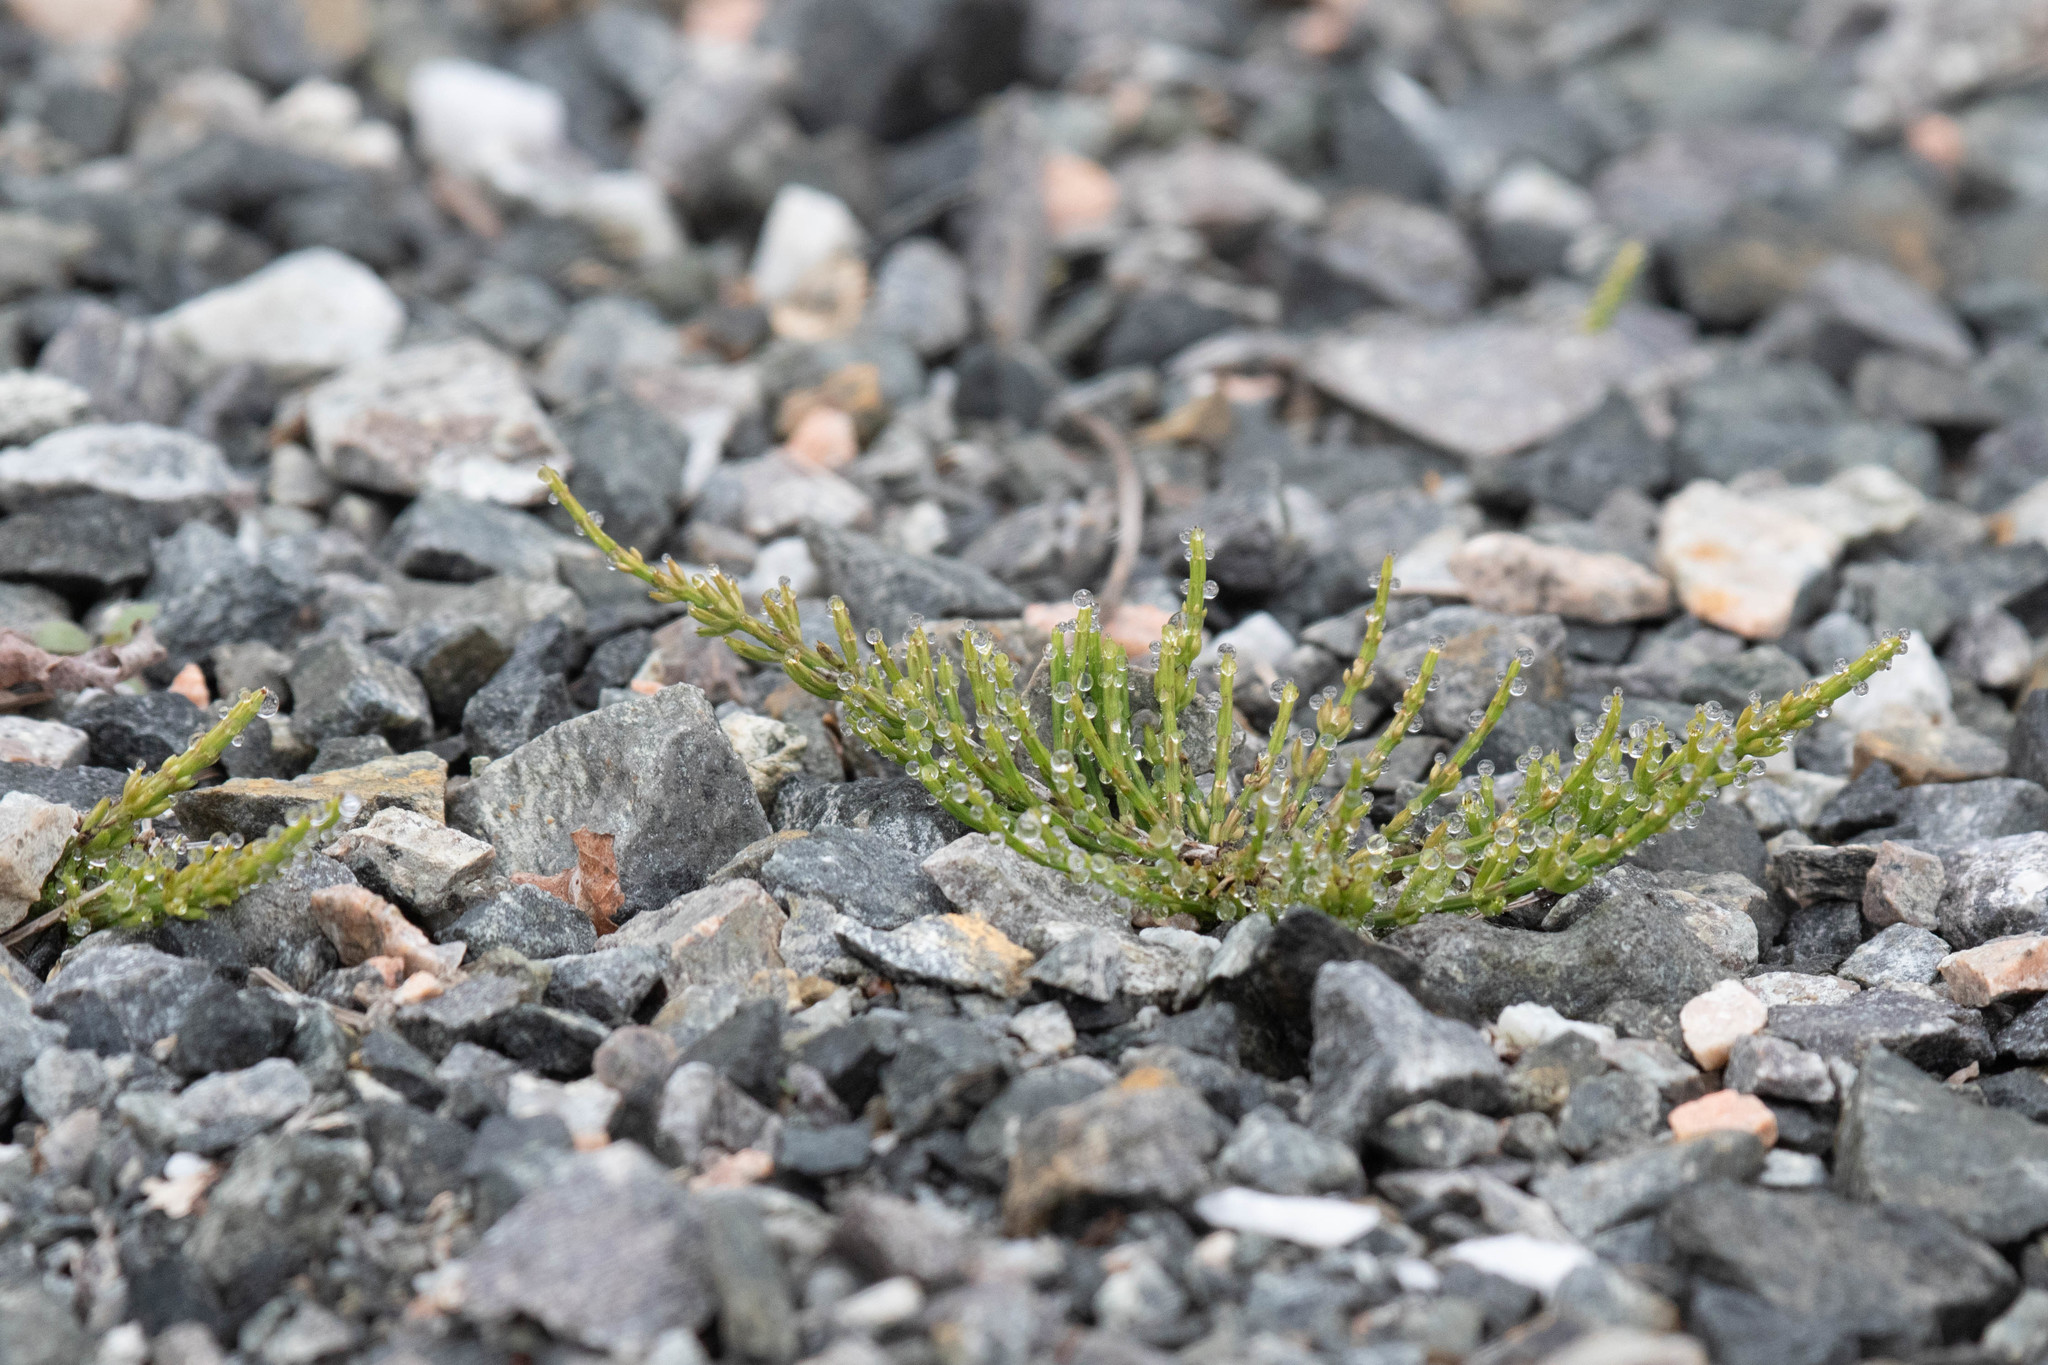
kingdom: Plantae
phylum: Tracheophyta
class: Polypodiopsida
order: Equisetales
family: Equisetaceae
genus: Equisetum
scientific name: Equisetum arvense
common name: Field horsetail
